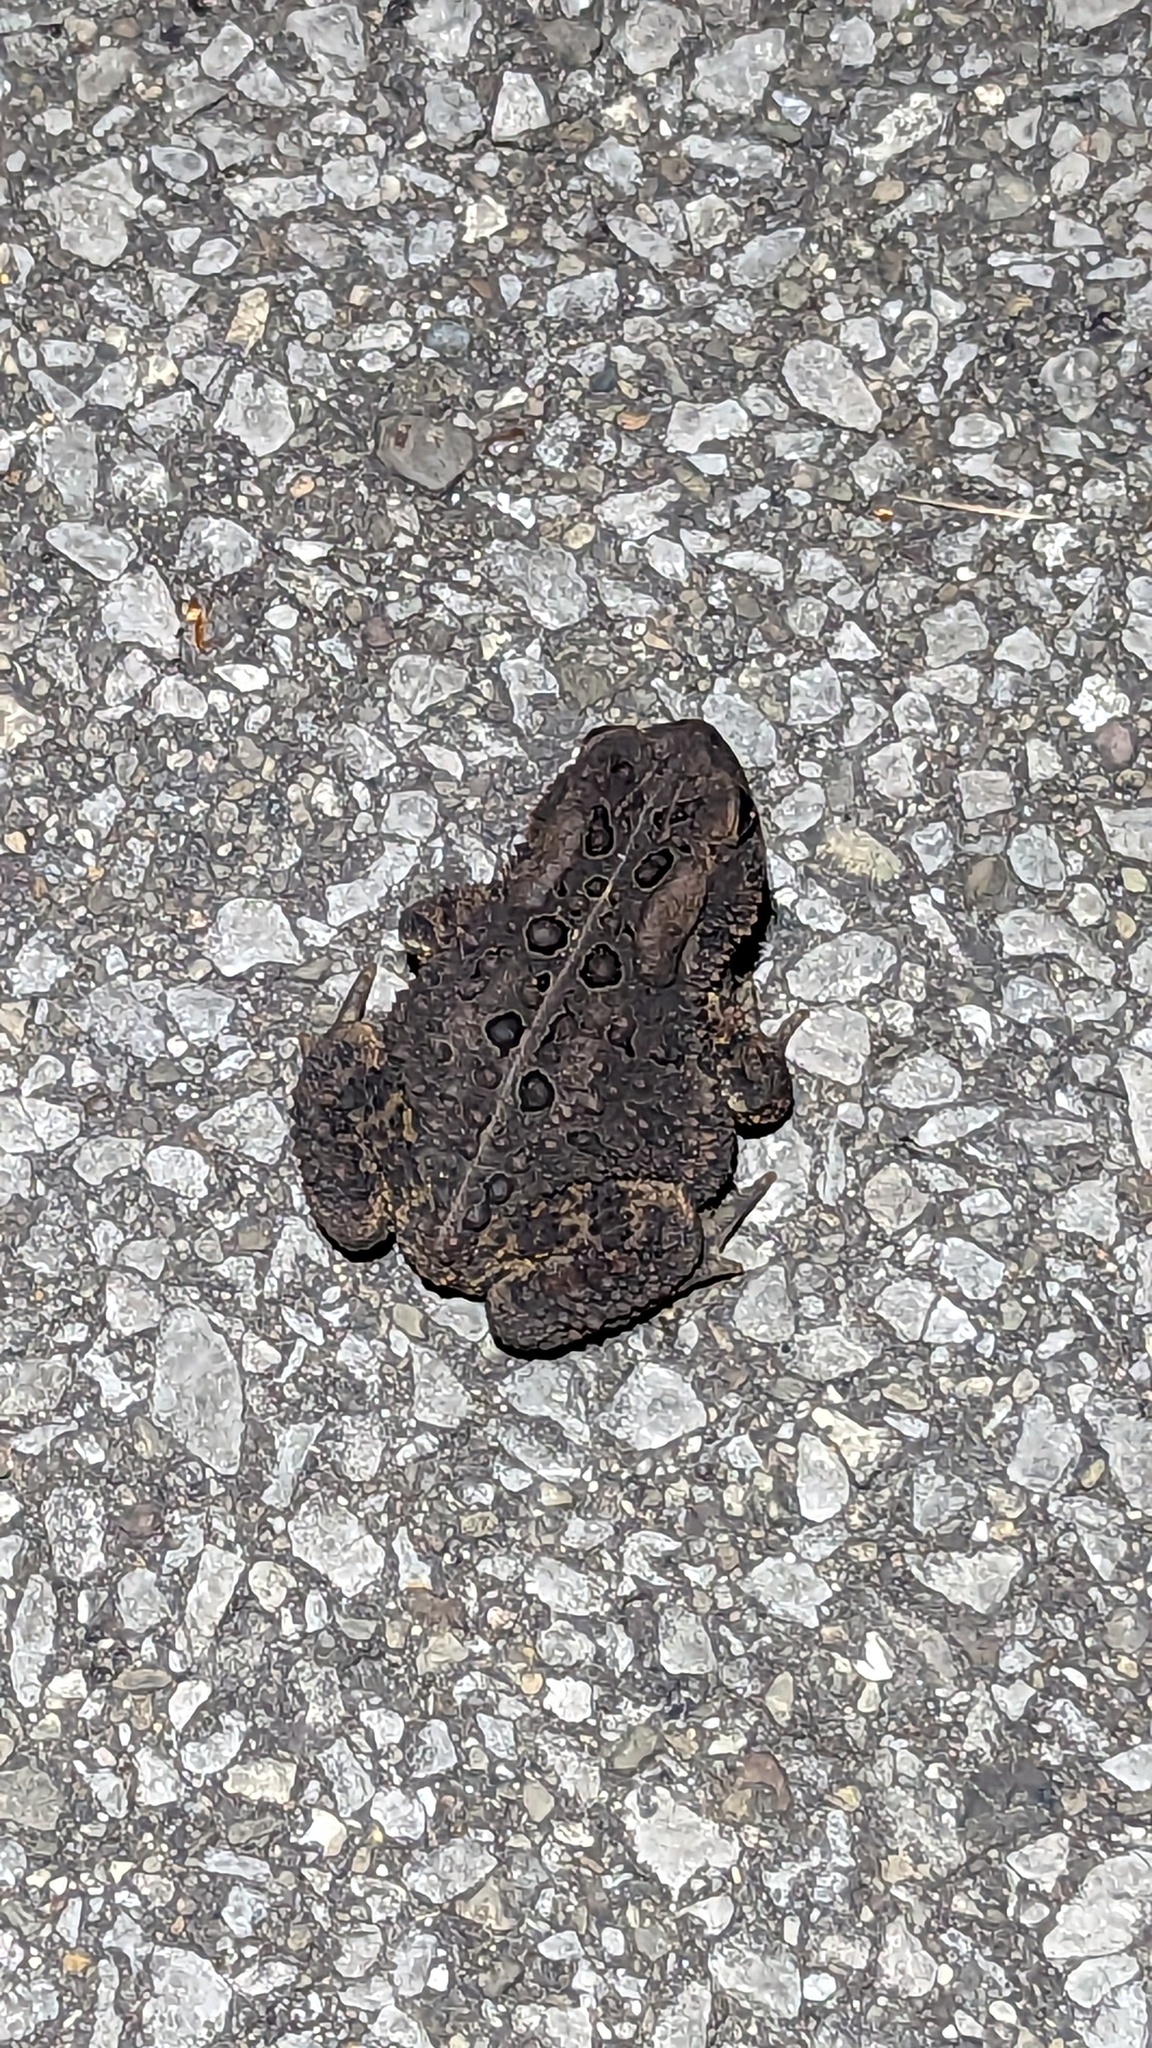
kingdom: Animalia
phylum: Chordata
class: Amphibia
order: Anura
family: Bufonidae
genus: Anaxyrus
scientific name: Anaxyrus americanus
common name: American toad
